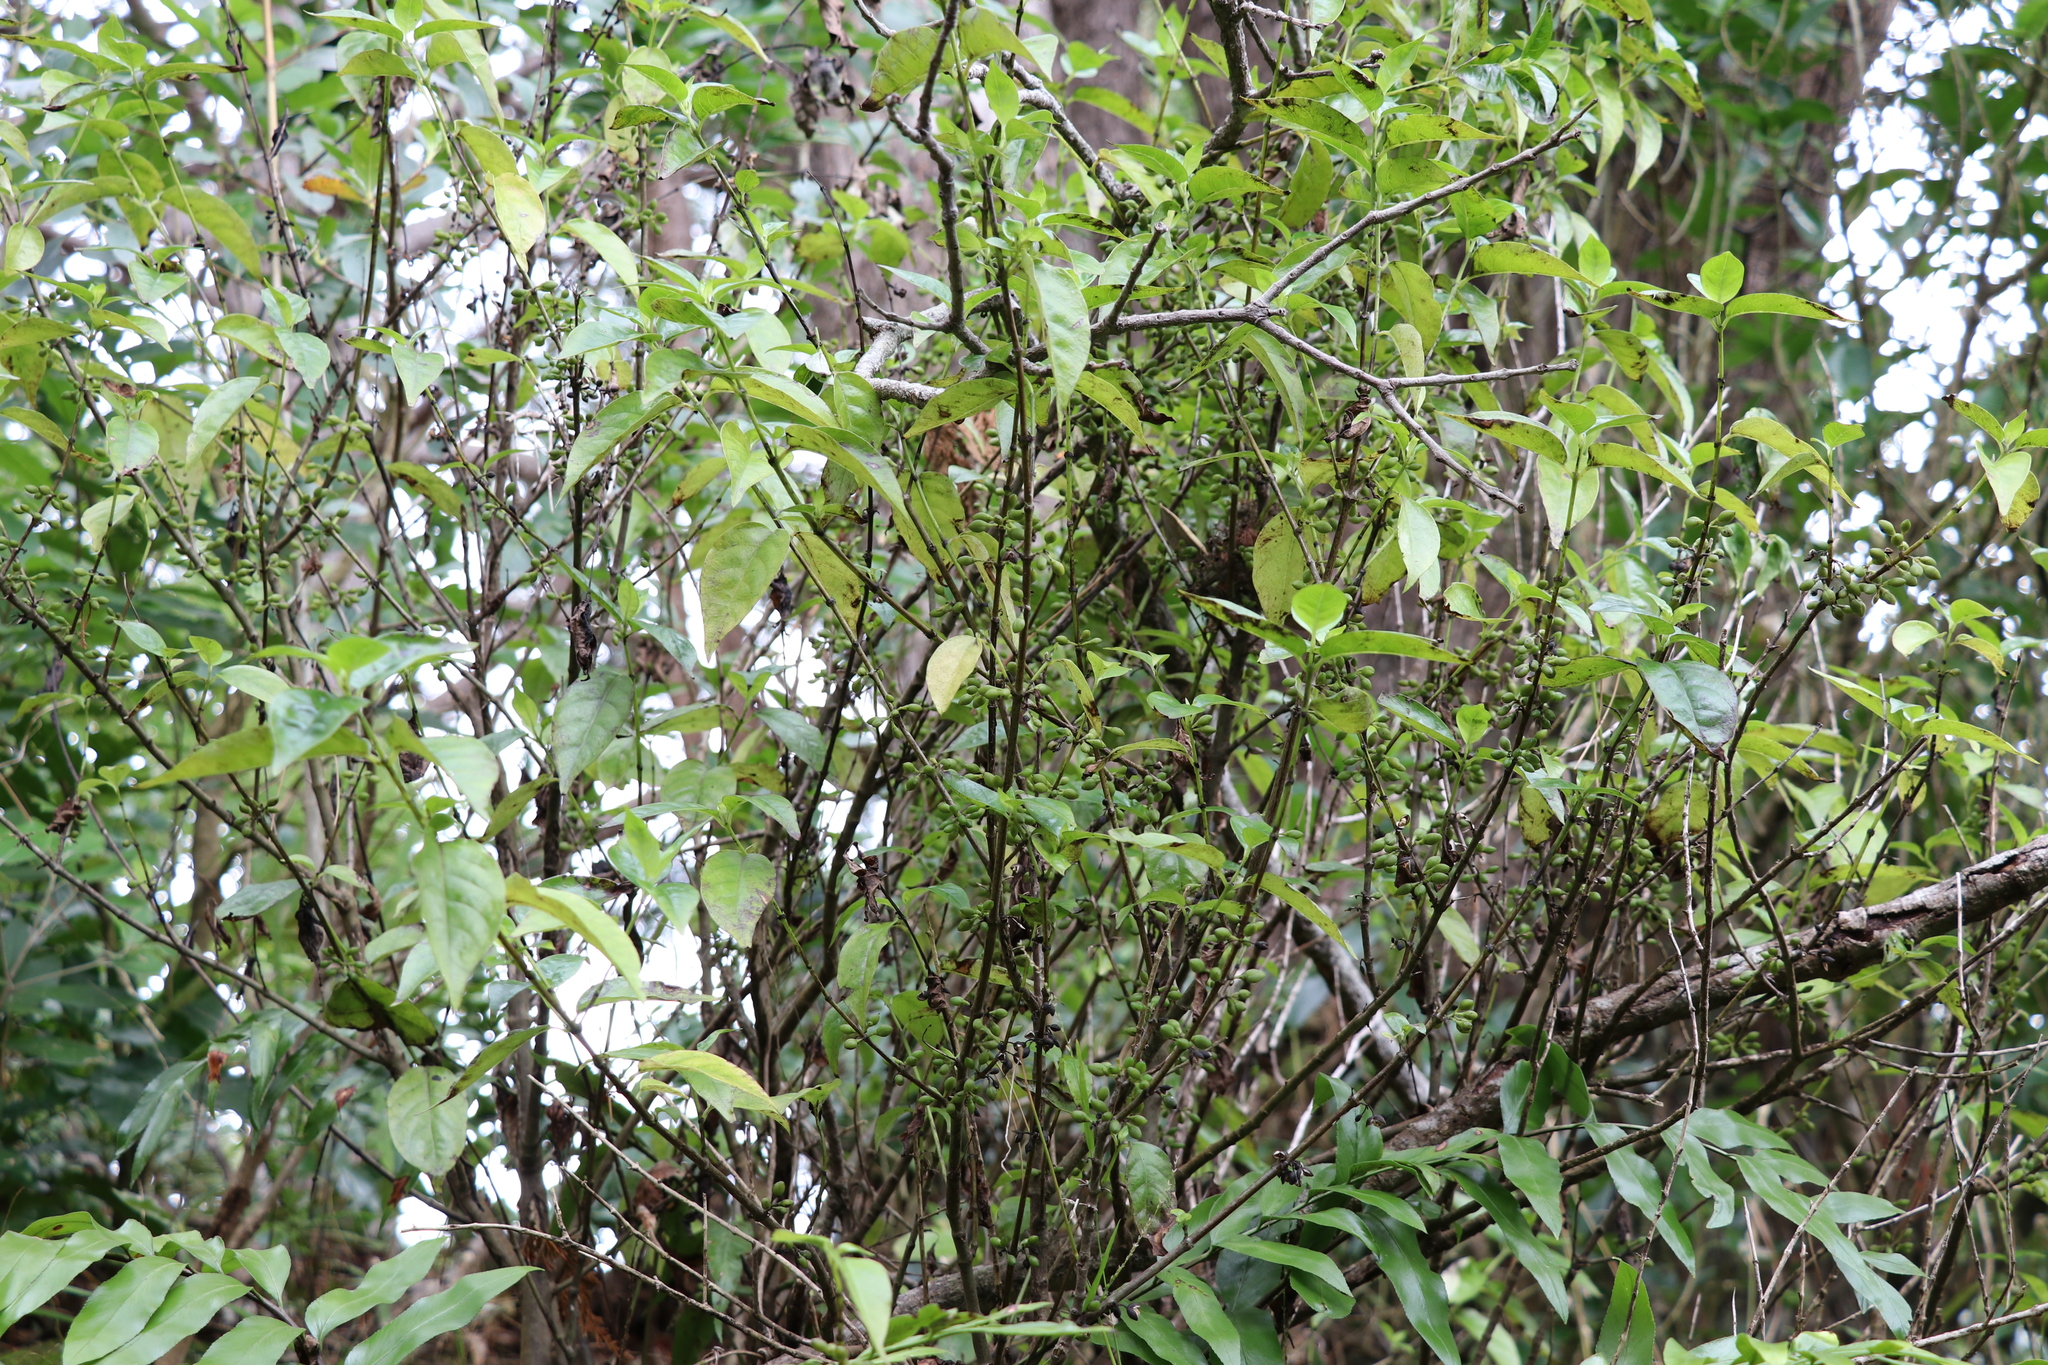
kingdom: Plantae
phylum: Tracheophyta
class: Magnoliopsida
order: Gentianales
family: Loganiaceae
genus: Geniostoma
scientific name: Geniostoma ligustrifolium
